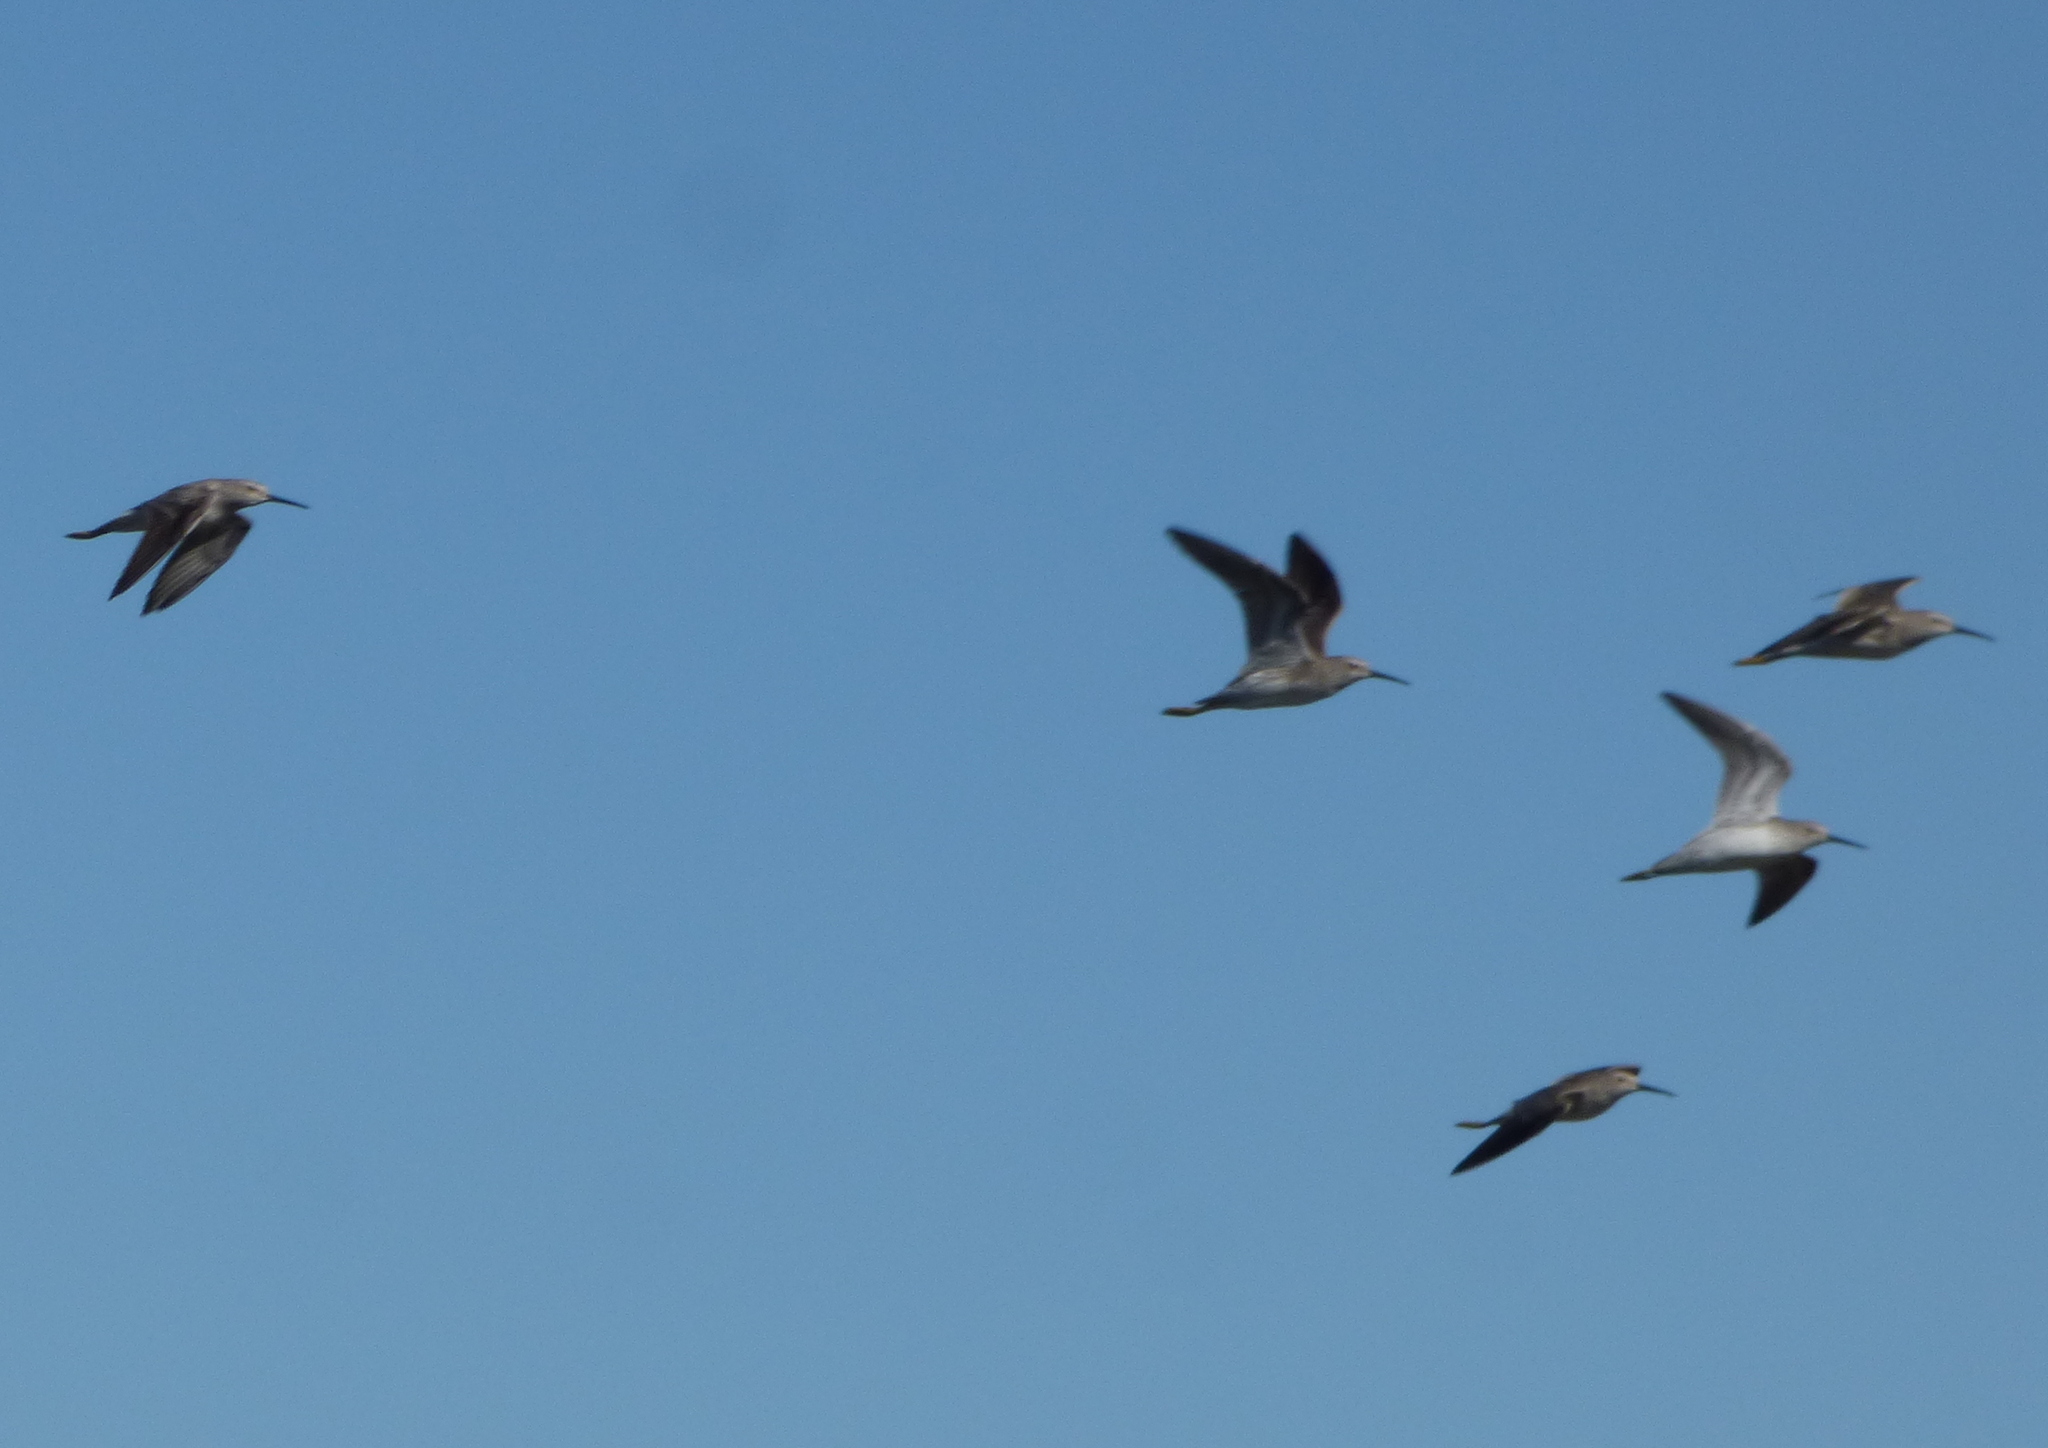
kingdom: Animalia
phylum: Chordata
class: Aves
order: Charadriiformes
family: Scolopacidae
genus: Calidris
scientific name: Calidris himantopus
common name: Stilt sandpiper
